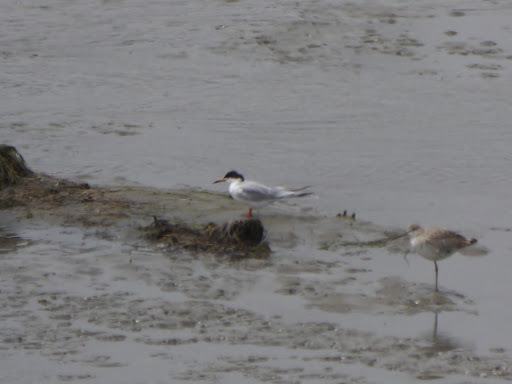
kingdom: Animalia
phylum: Chordata
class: Aves
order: Charadriiformes
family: Laridae
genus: Sterna
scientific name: Sterna forsteri
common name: Forster's tern
